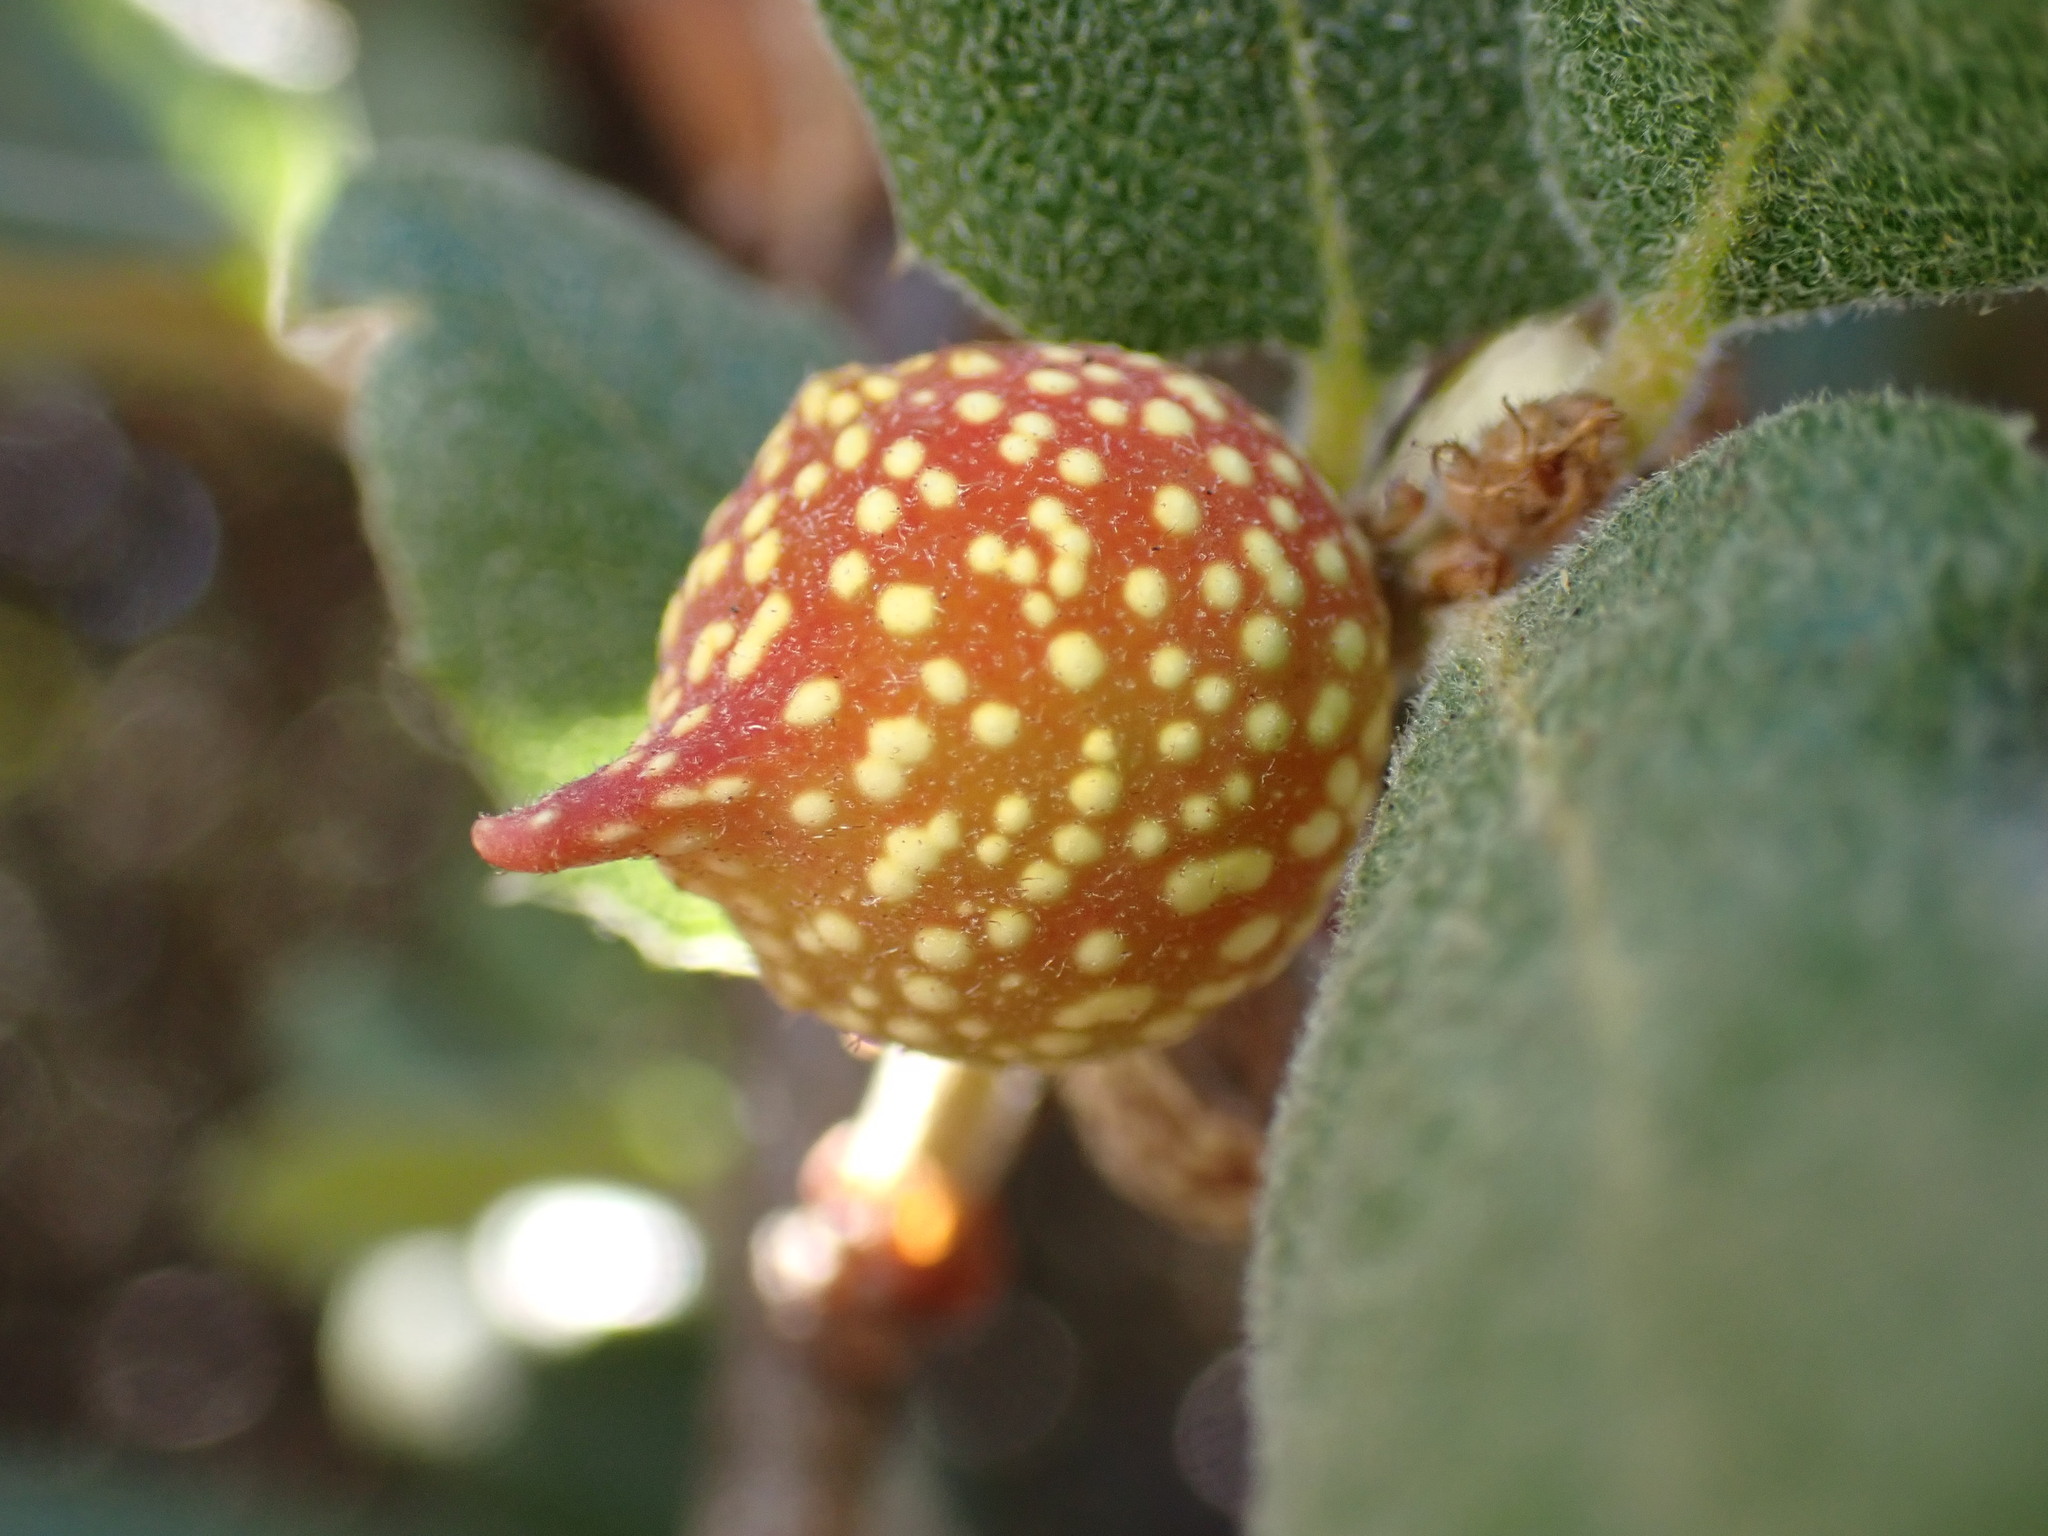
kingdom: Animalia
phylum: Arthropoda
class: Insecta
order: Hymenoptera
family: Cynipidae
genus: Burnettweldia
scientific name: Burnettweldia
